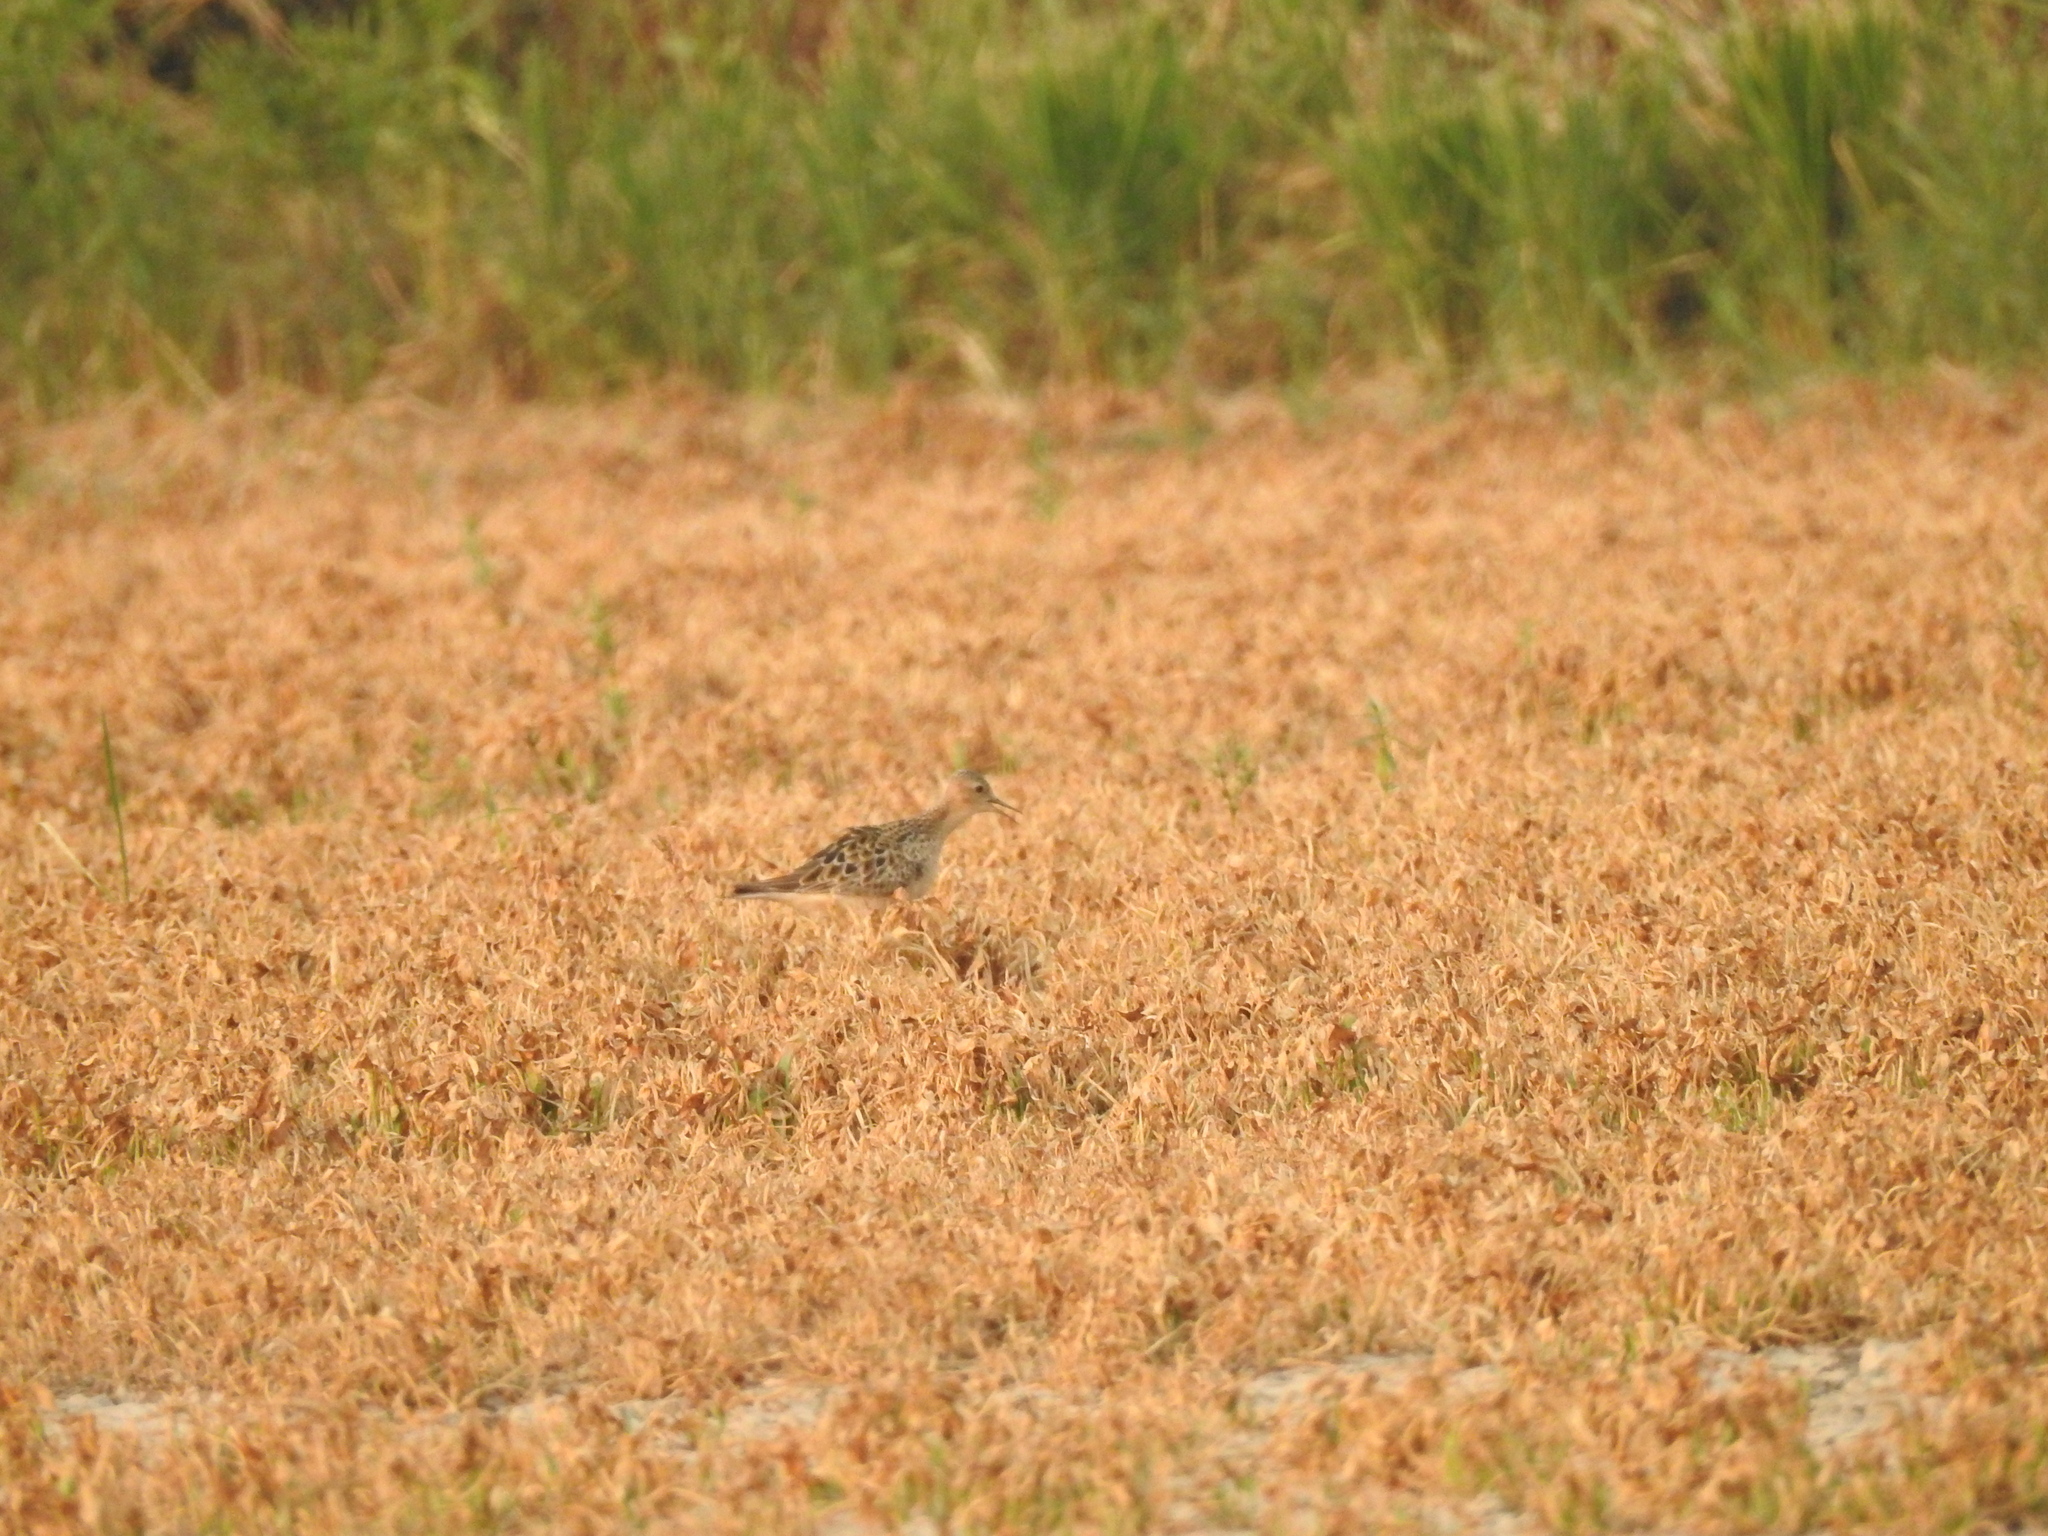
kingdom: Animalia
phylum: Chordata
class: Aves
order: Charadriiformes
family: Scolopacidae
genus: Calidris
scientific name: Calidris subruficollis
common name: Buff-breasted sandpiper
